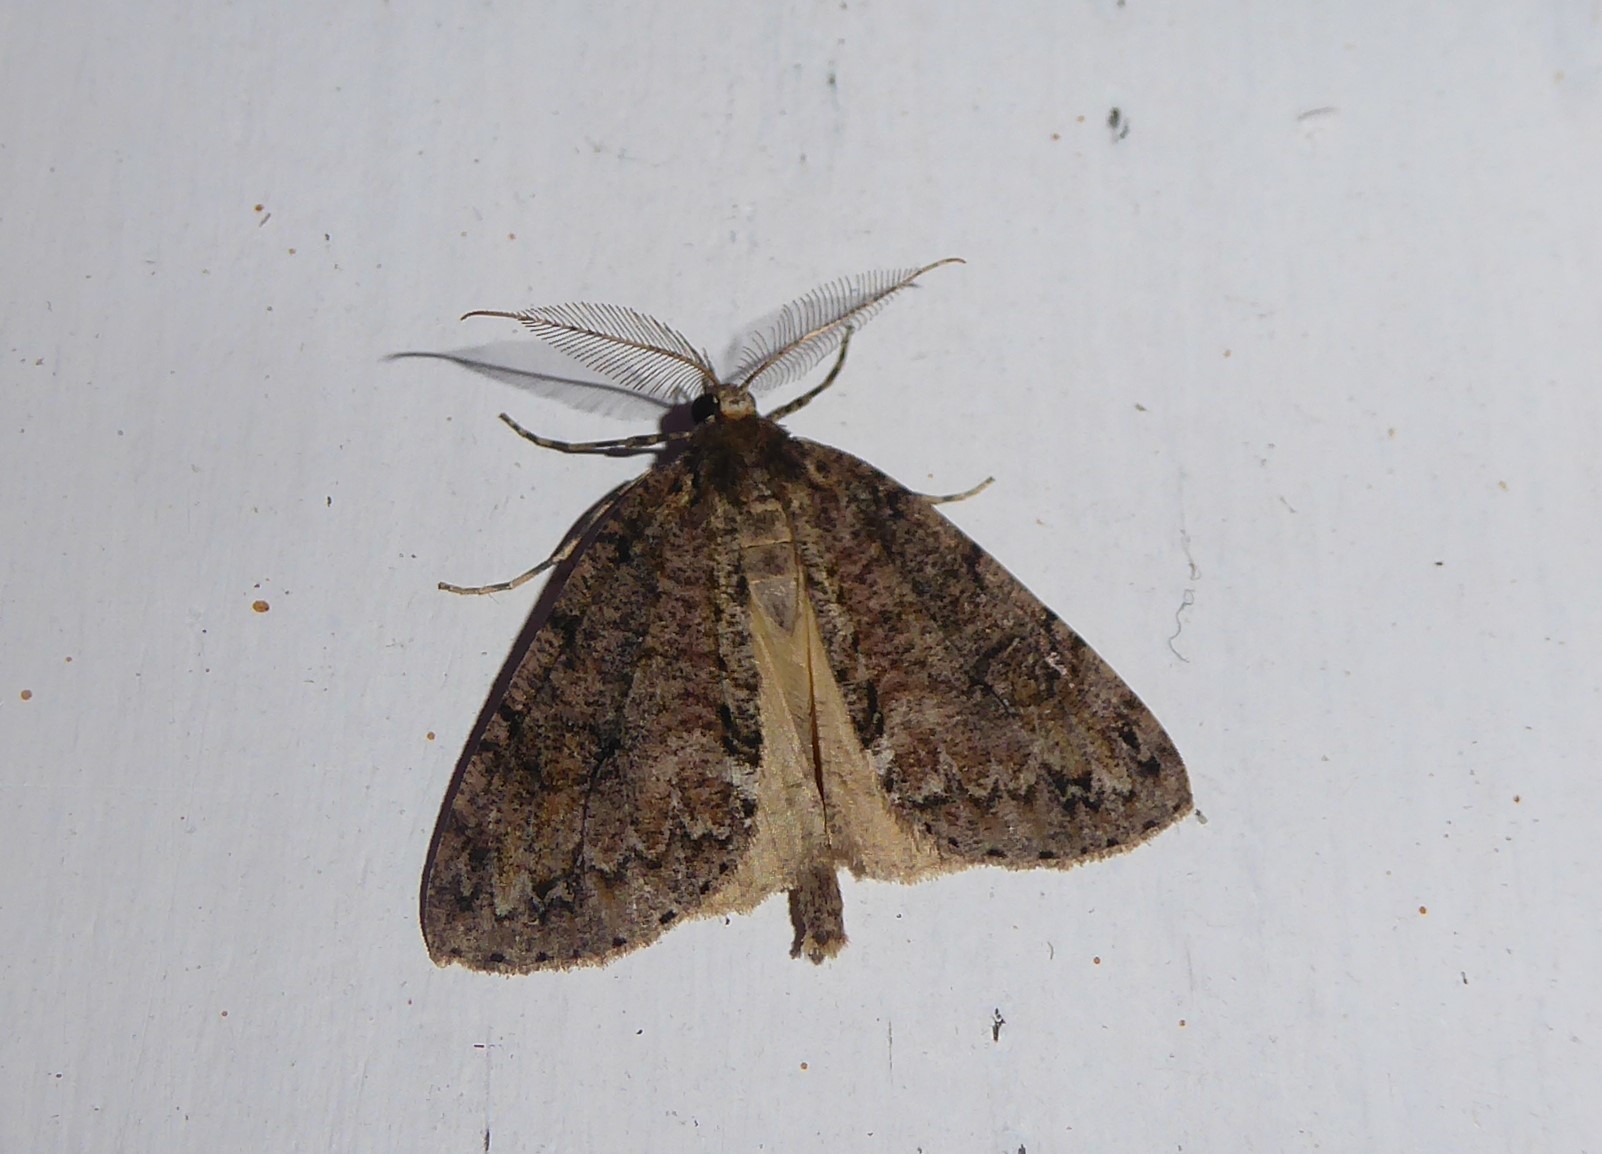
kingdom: Animalia
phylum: Arthropoda
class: Insecta
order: Lepidoptera
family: Geometridae
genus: Pseudocoremia
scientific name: Pseudocoremia suavis
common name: Common forest looper
